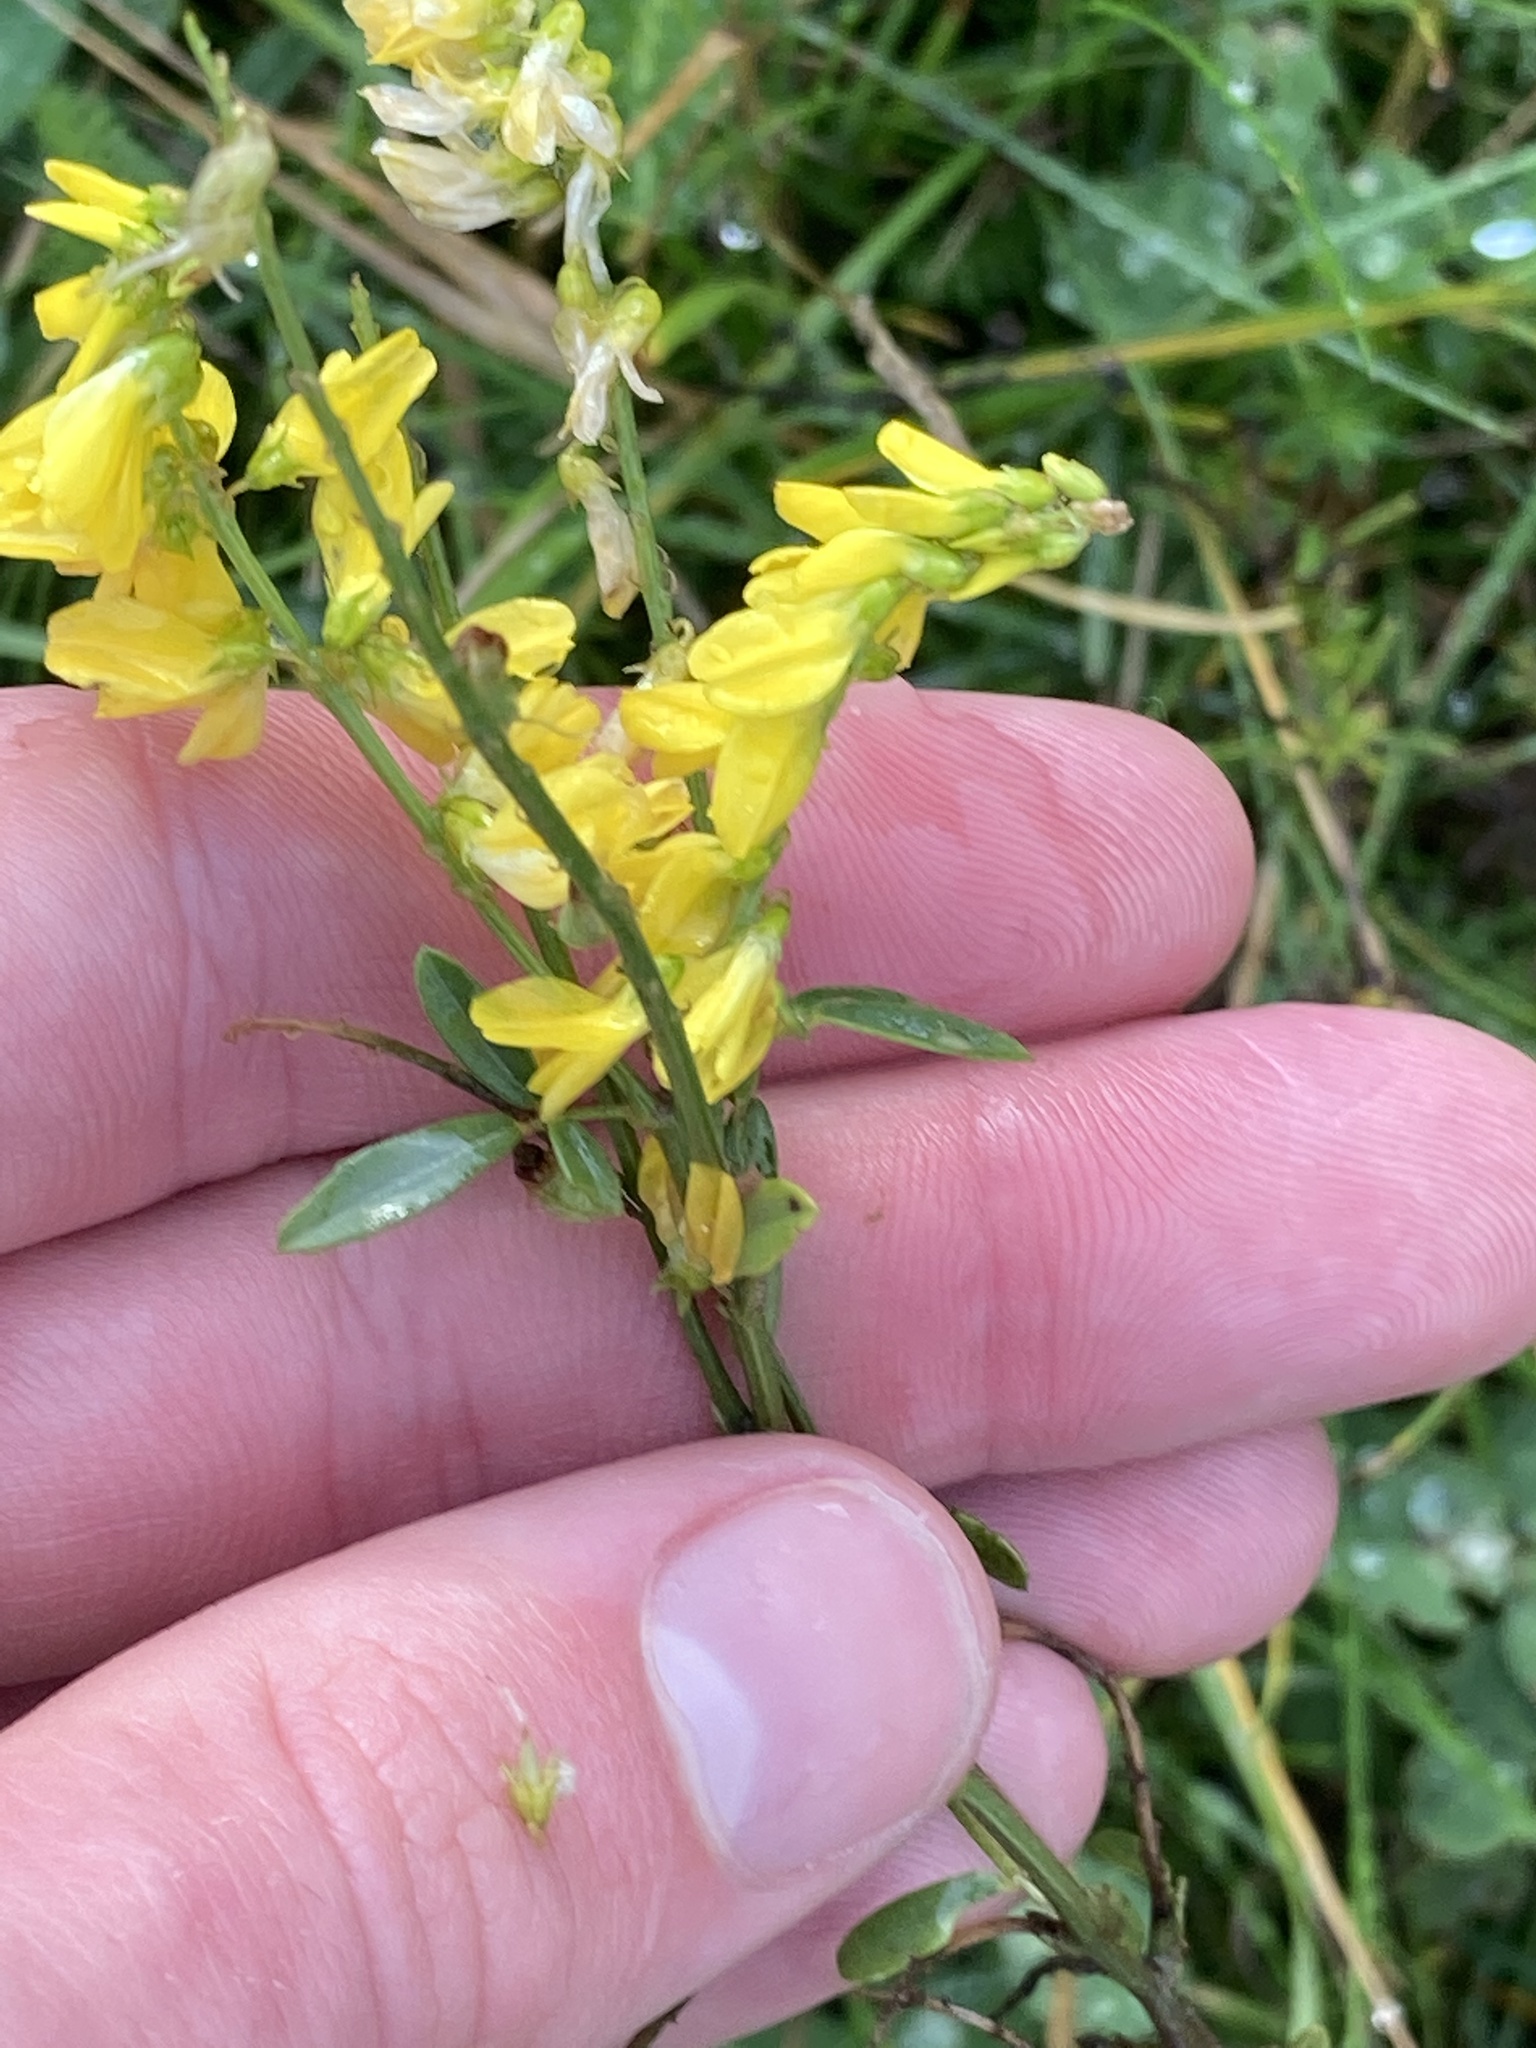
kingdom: Plantae
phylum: Tracheophyta
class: Magnoliopsida
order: Fabales
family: Fabaceae
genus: Melilotus
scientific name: Melilotus officinalis
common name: Sweetclover
